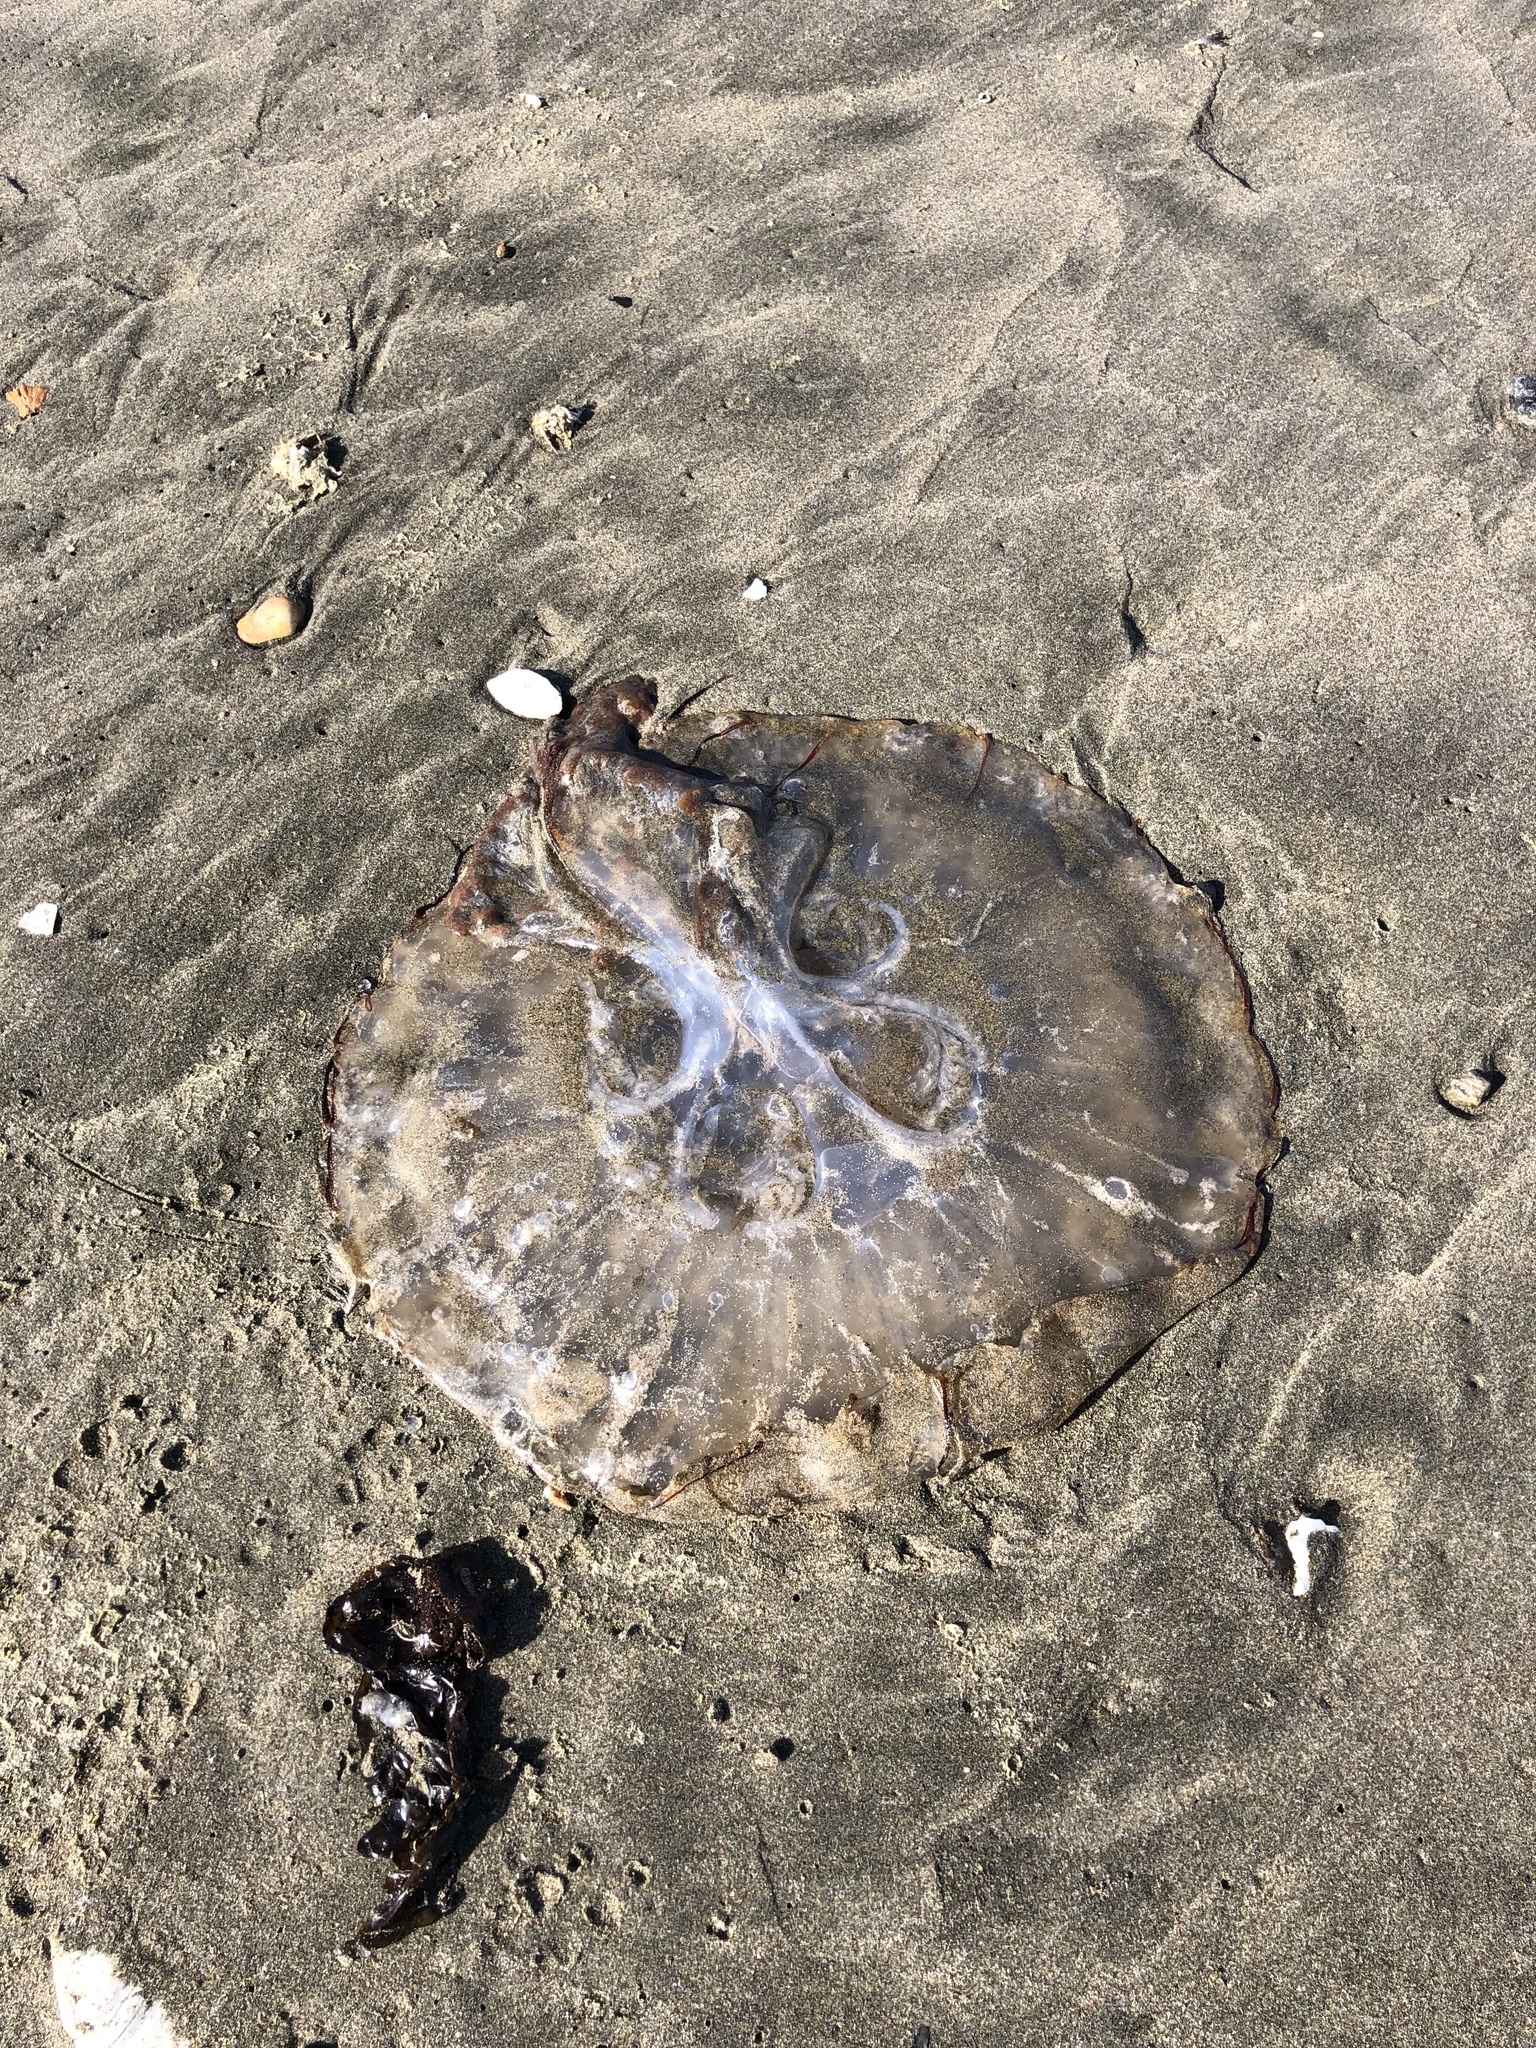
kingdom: Animalia
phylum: Cnidaria
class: Scyphozoa
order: Semaeostomeae
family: Pelagiidae
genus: Chrysaora
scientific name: Chrysaora fuscescens
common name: Sea nettle
